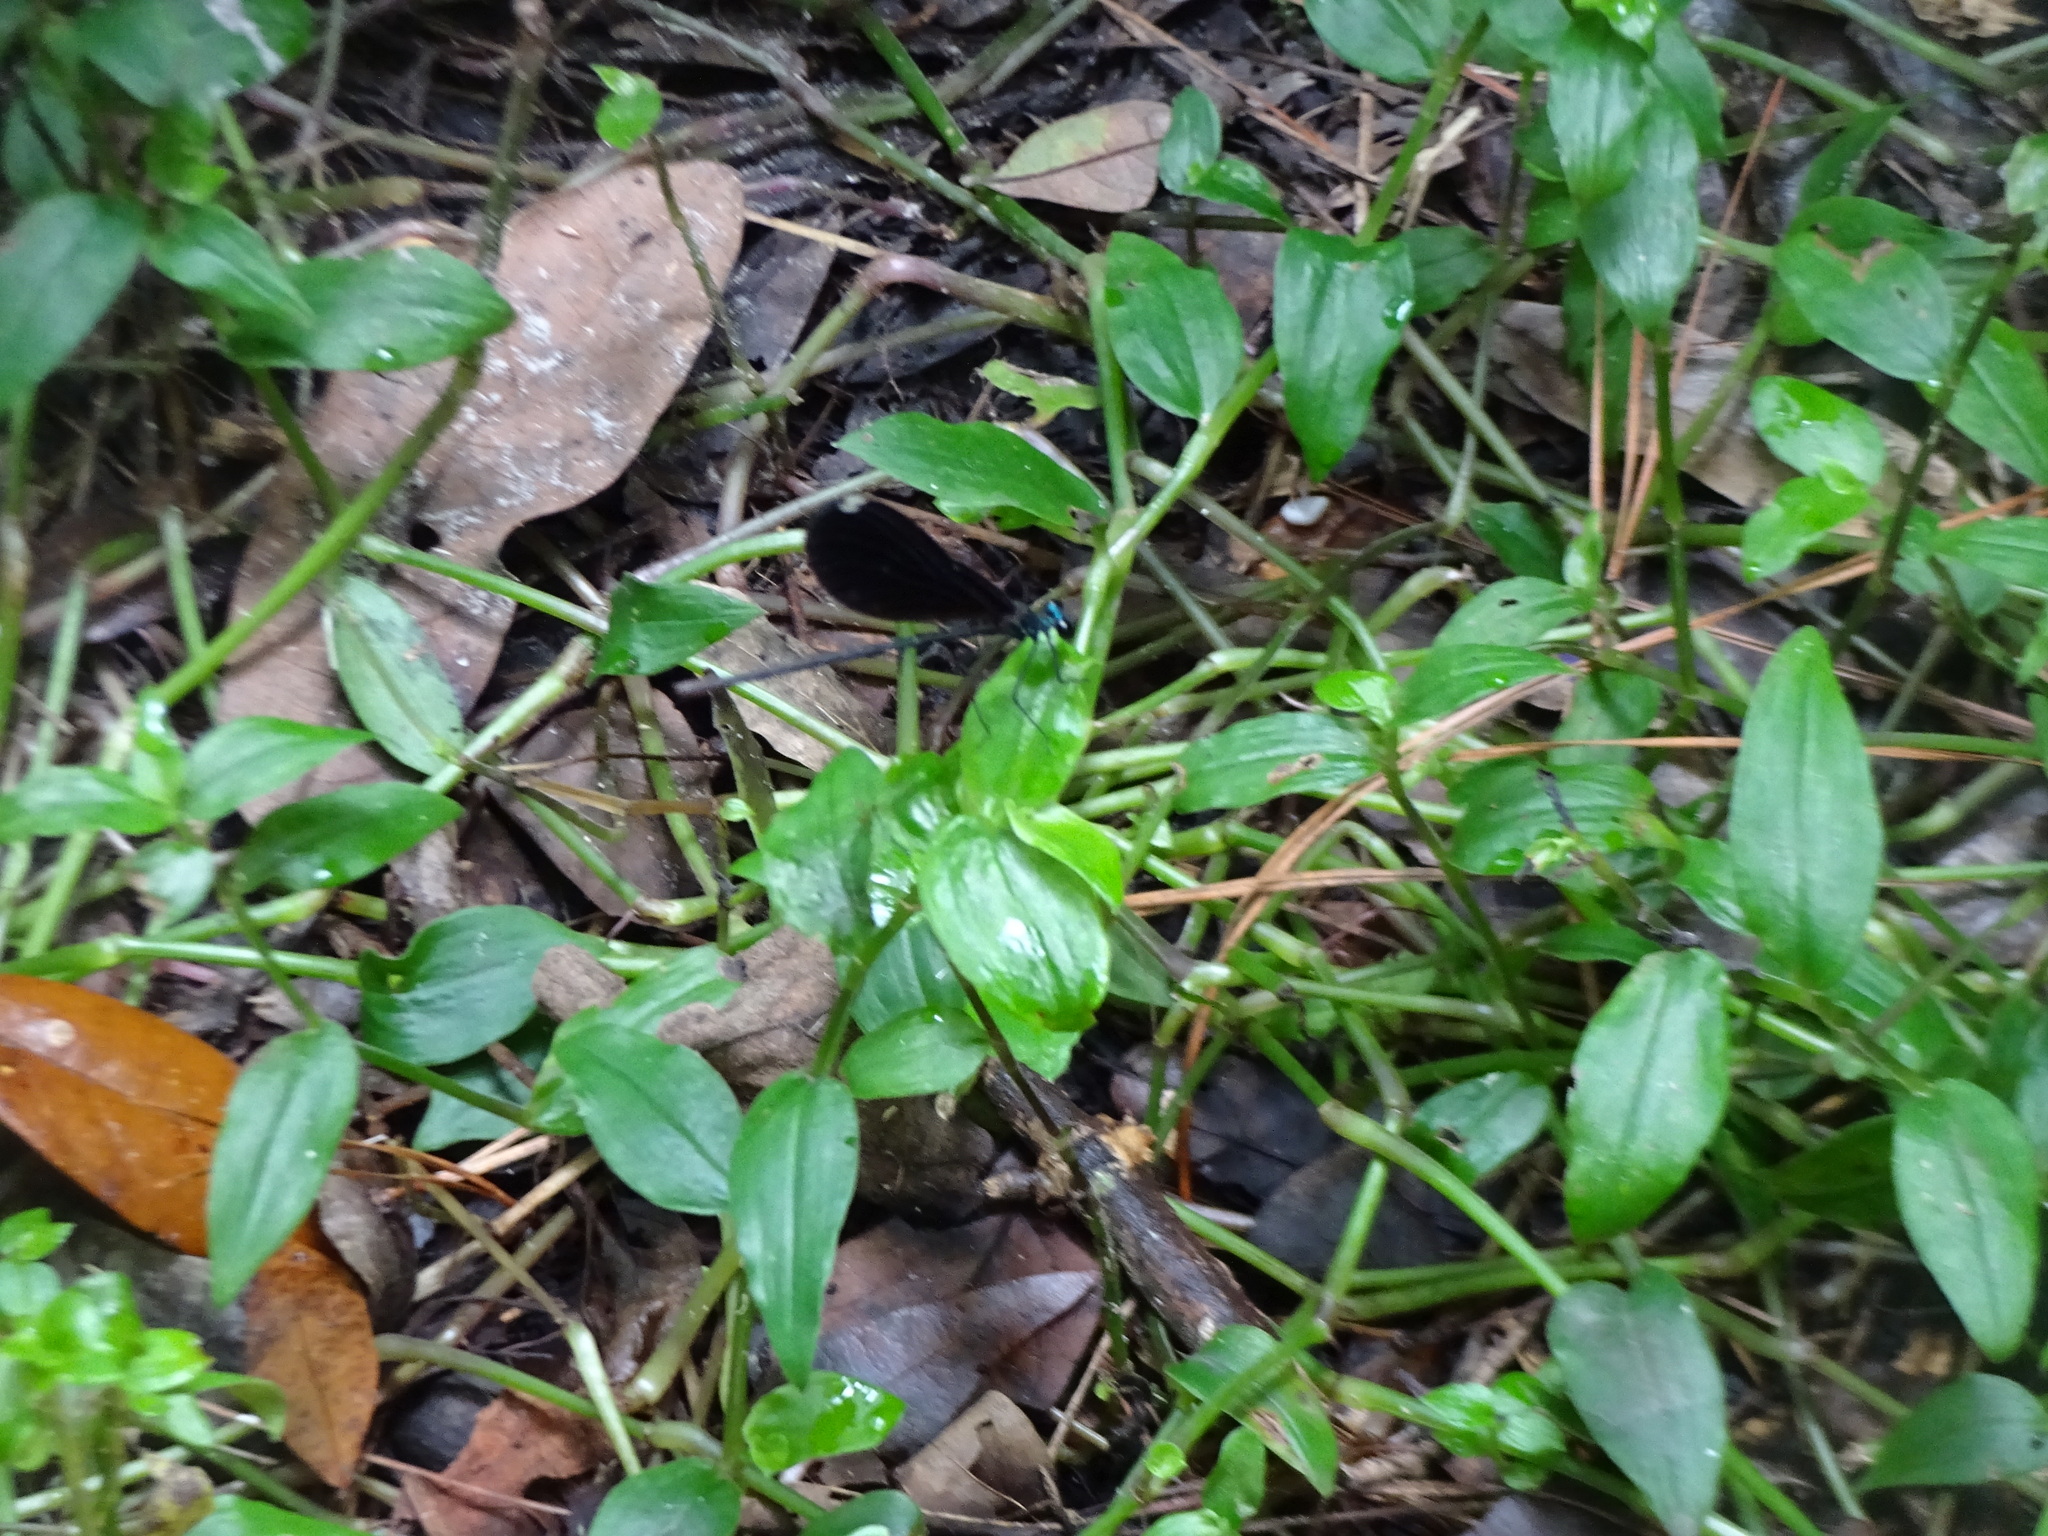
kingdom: Animalia
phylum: Arthropoda
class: Insecta
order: Odonata
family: Calopterygidae
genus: Calopteryx
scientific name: Calopteryx maculata
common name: Ebony jewelwing
